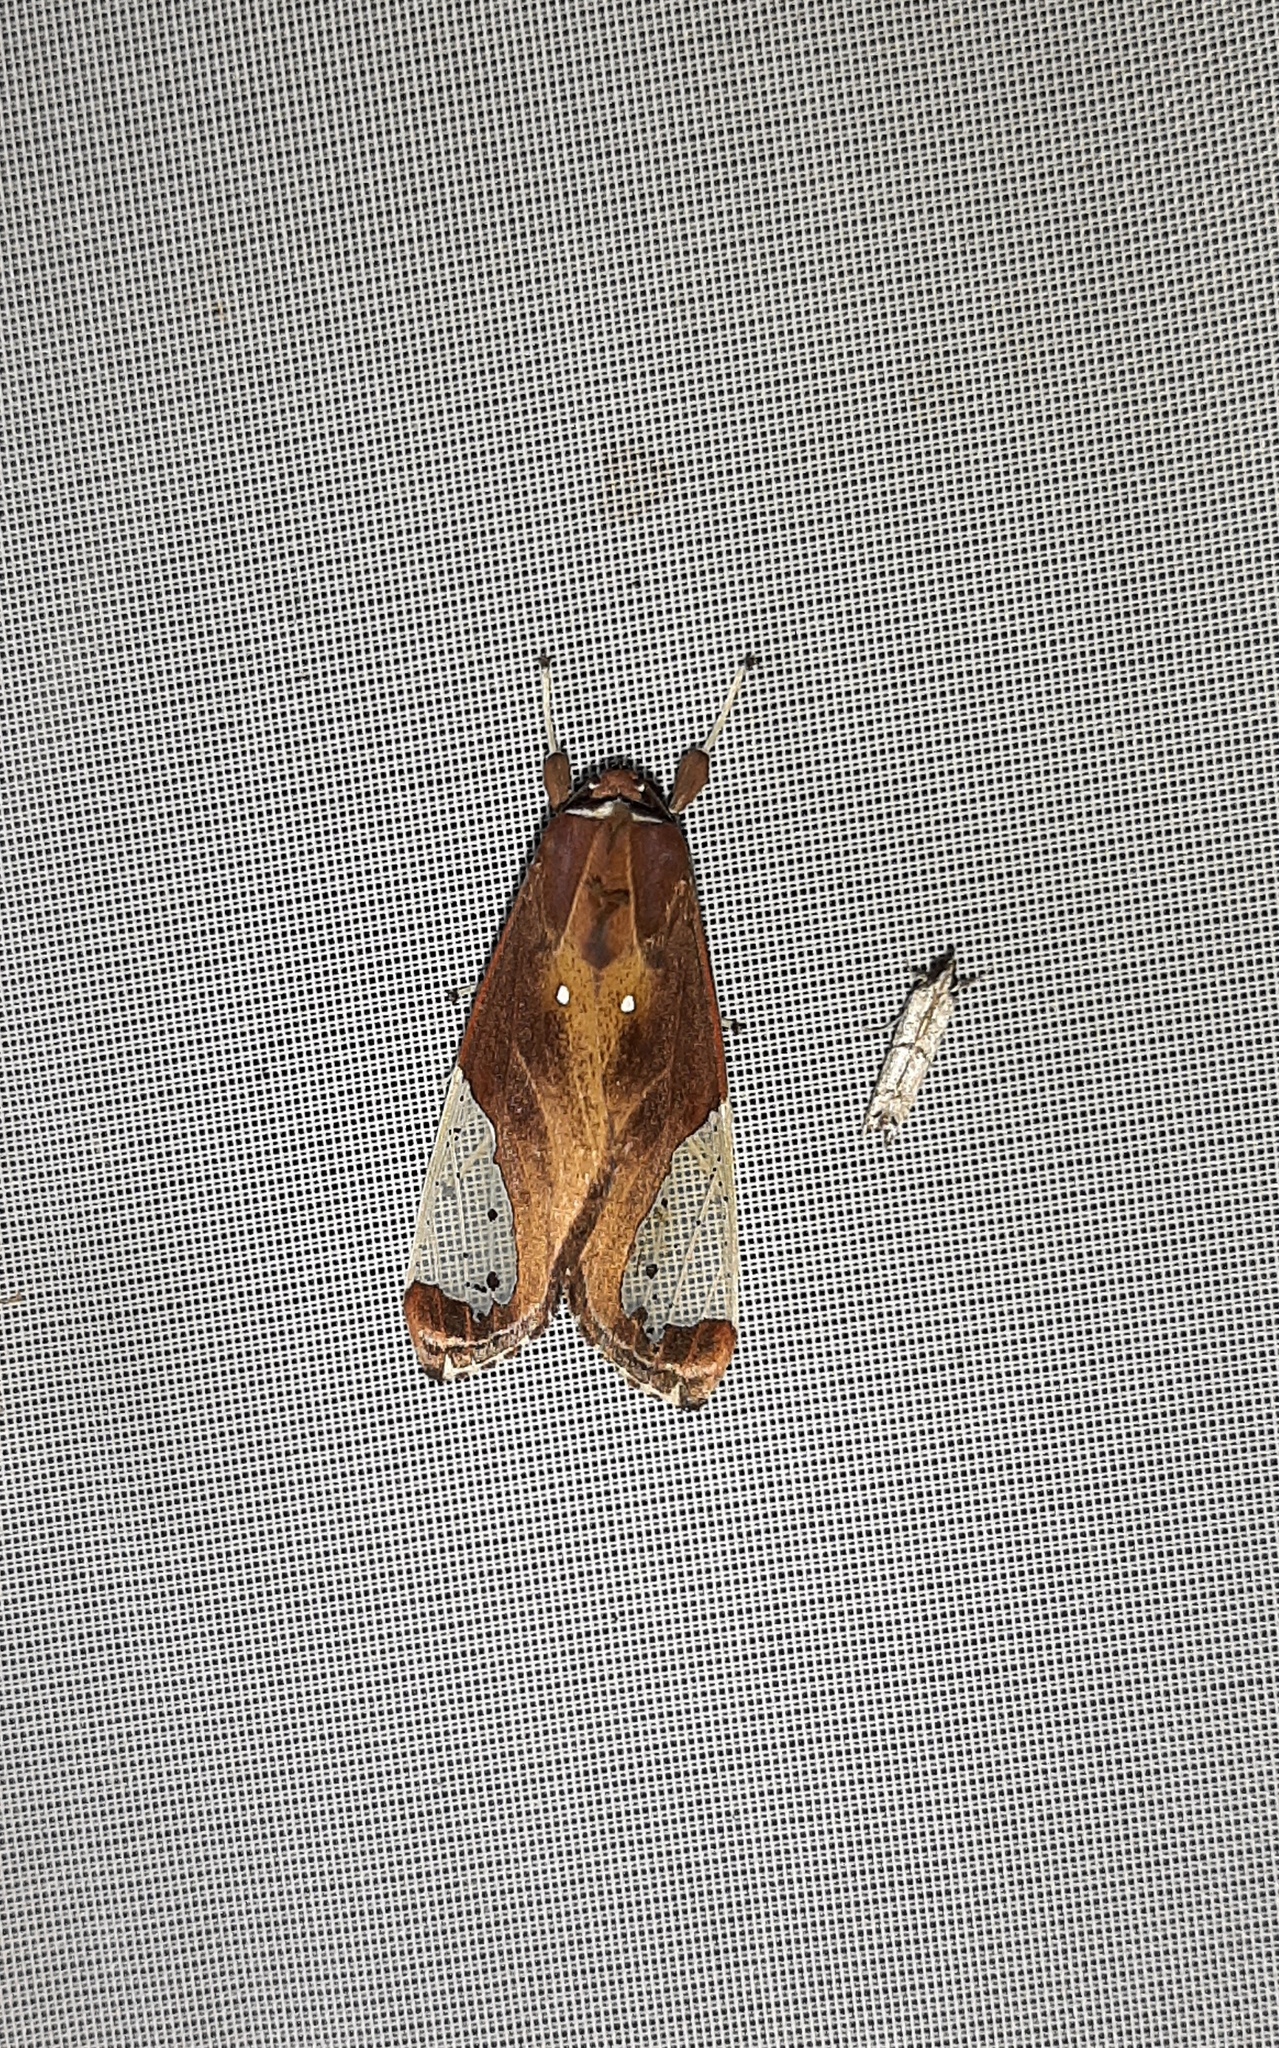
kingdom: Animalia
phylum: Arthropoda
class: Insecta
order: Lepidoptera
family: Erebidae
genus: Bertholdia
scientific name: Bertholdia albipuncta
